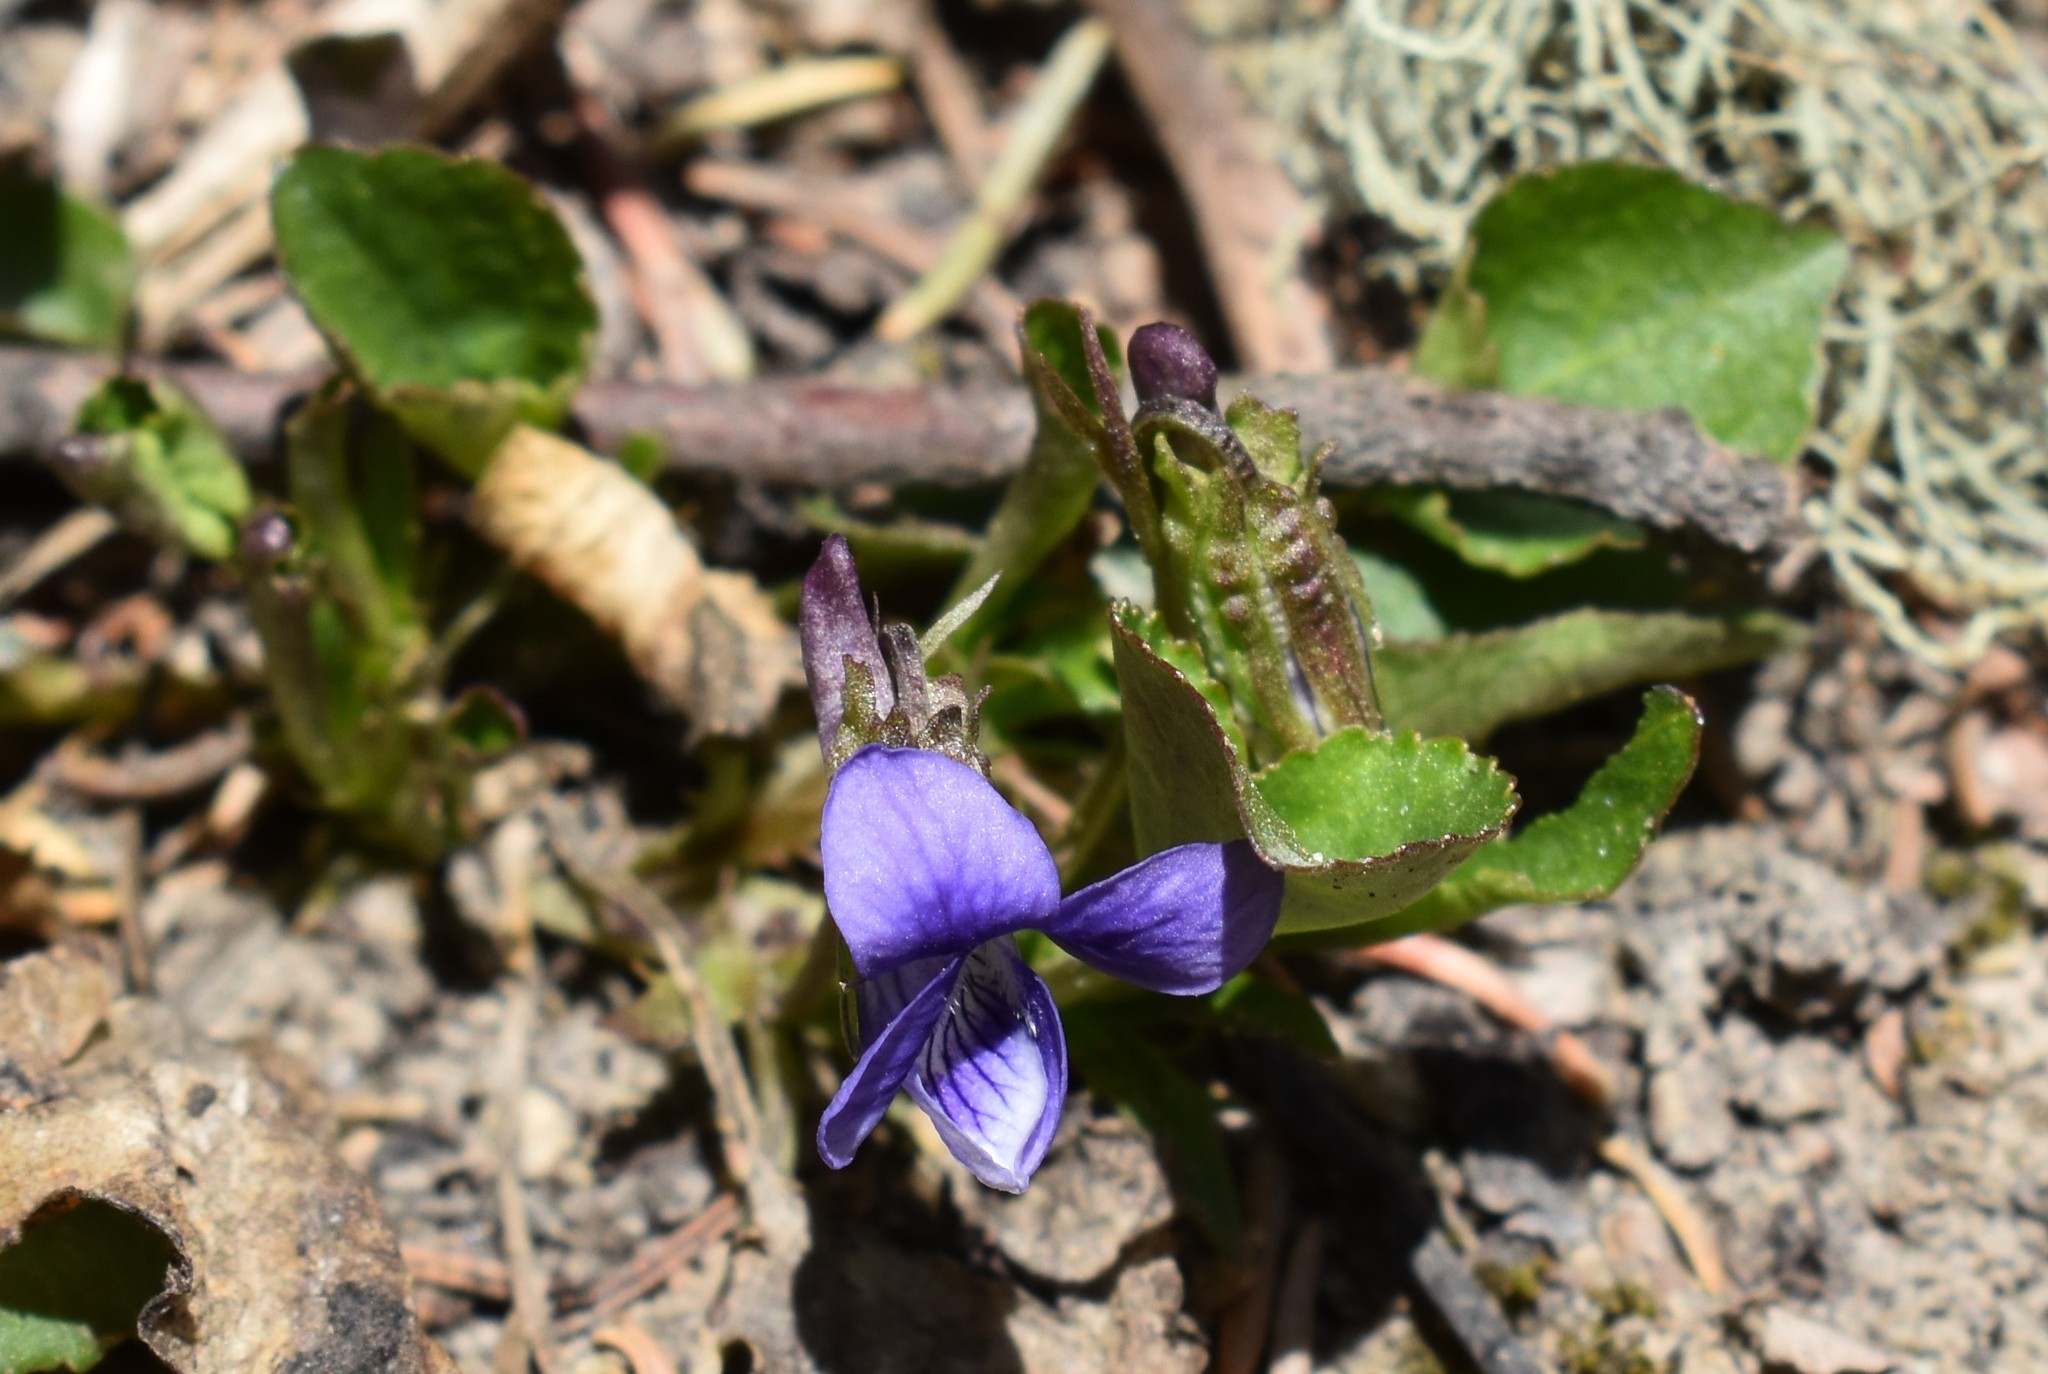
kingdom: Plantae
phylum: Tracheophyta
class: Magnoliopsida
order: Malpighiales
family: Violaceae
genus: Viola
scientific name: Viola adunca
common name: Sand violet
